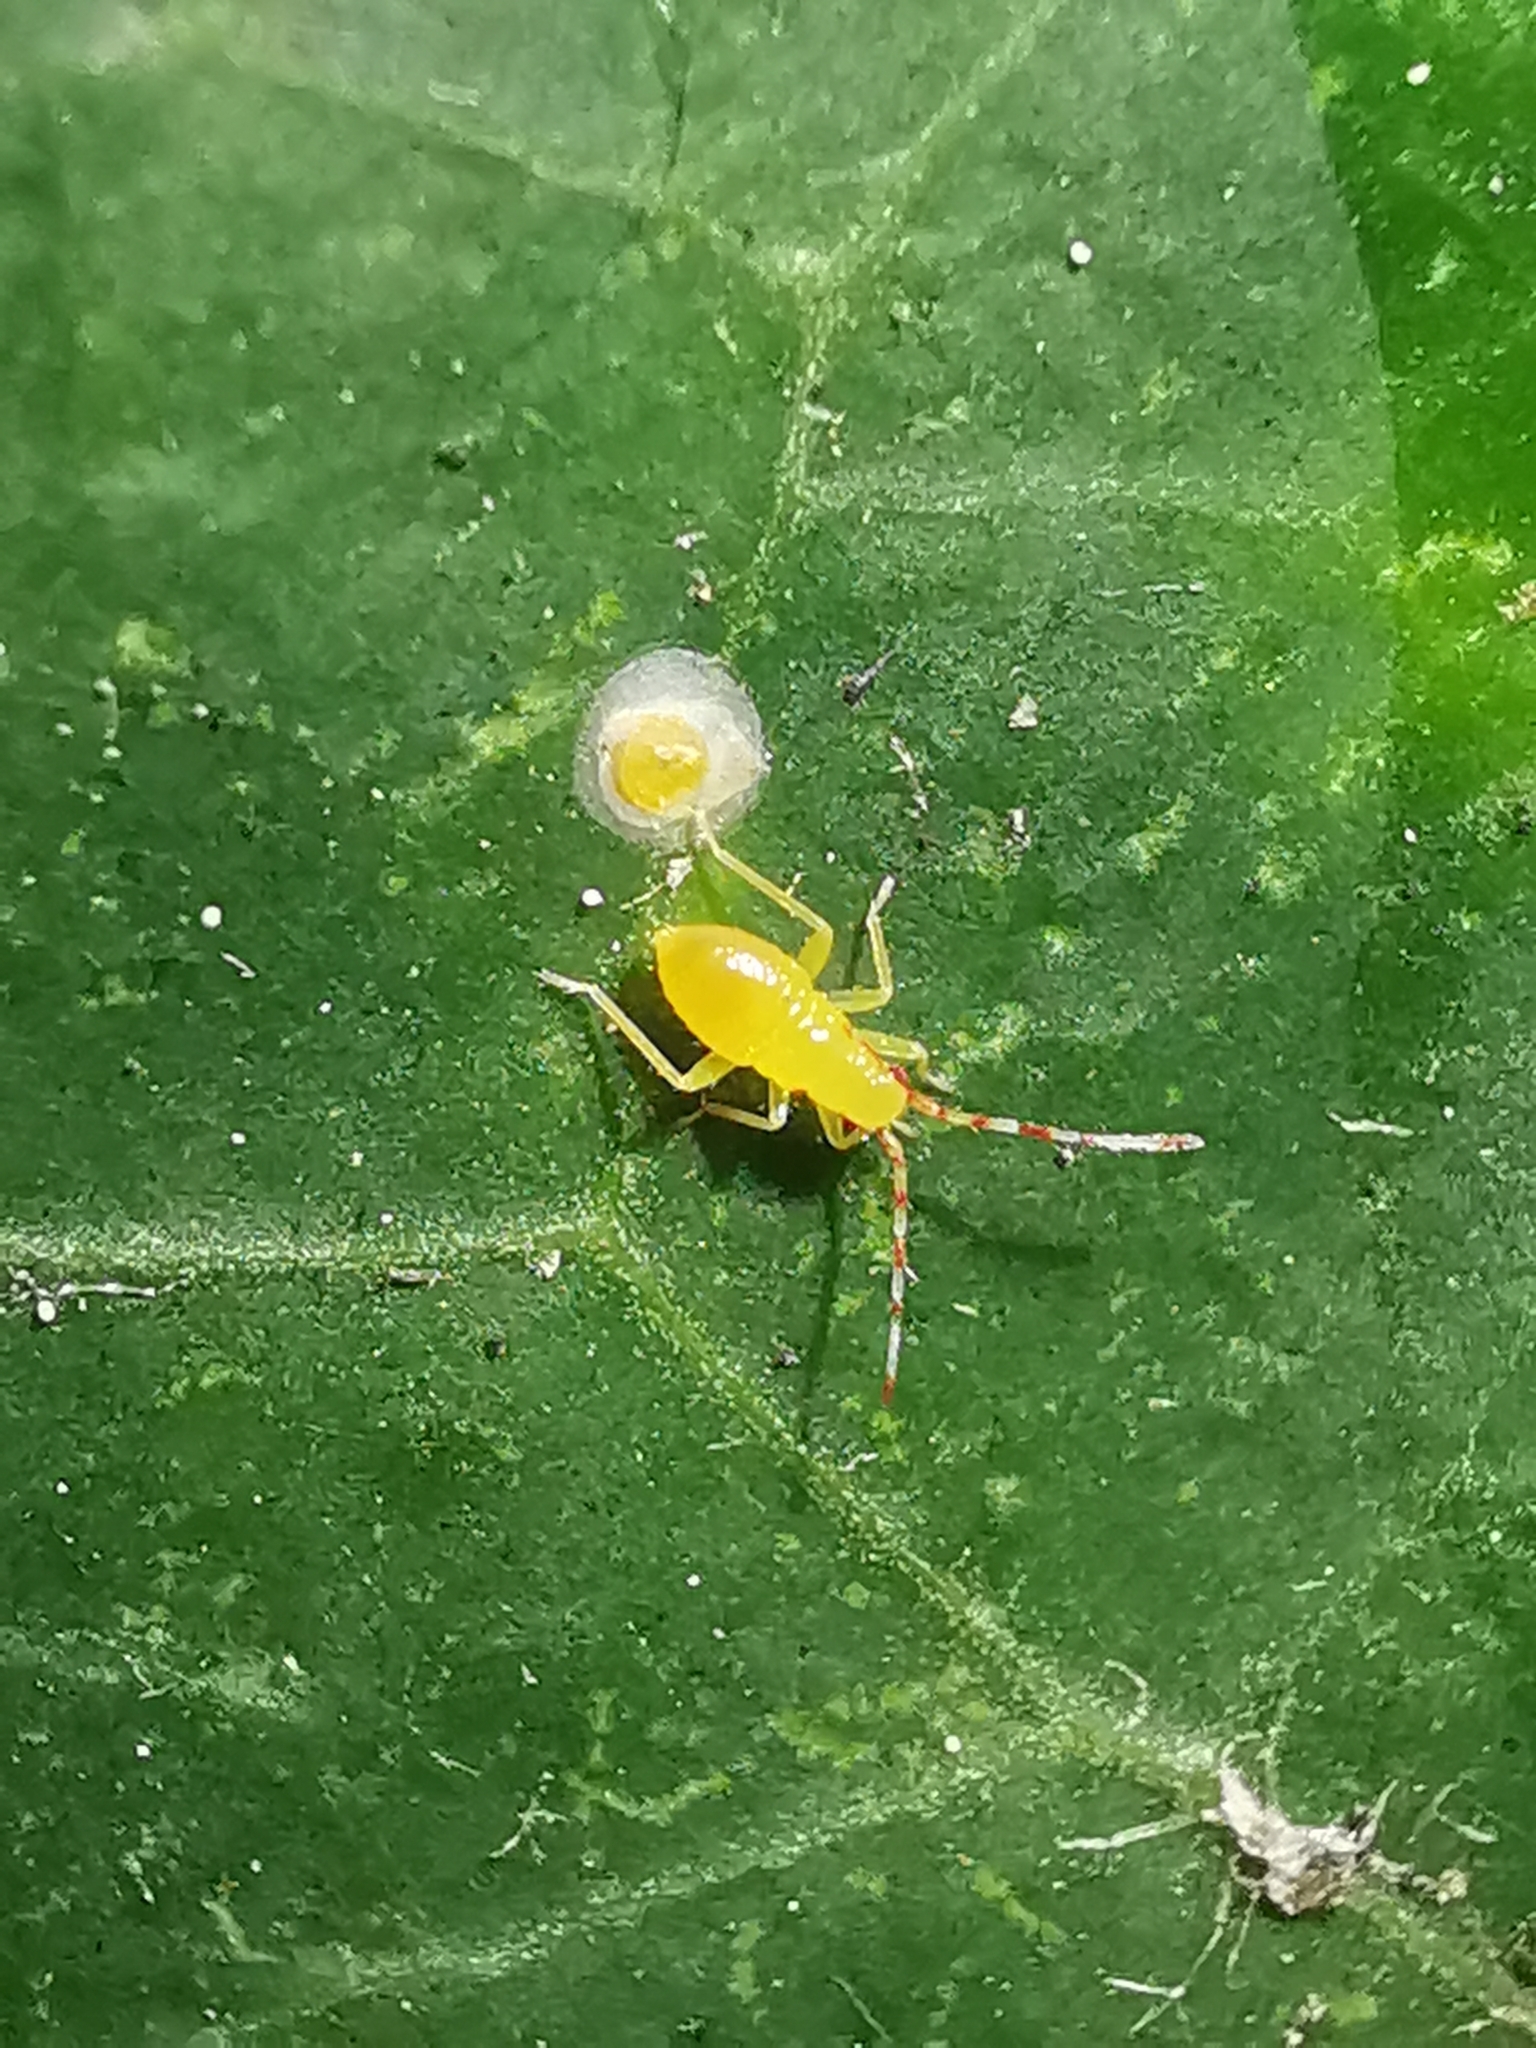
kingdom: Animalia
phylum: Arthropoda
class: Insecta
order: Hemiptera
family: Miridae
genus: Campyloneura
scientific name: Campyloneura virgula
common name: Predatory bug
